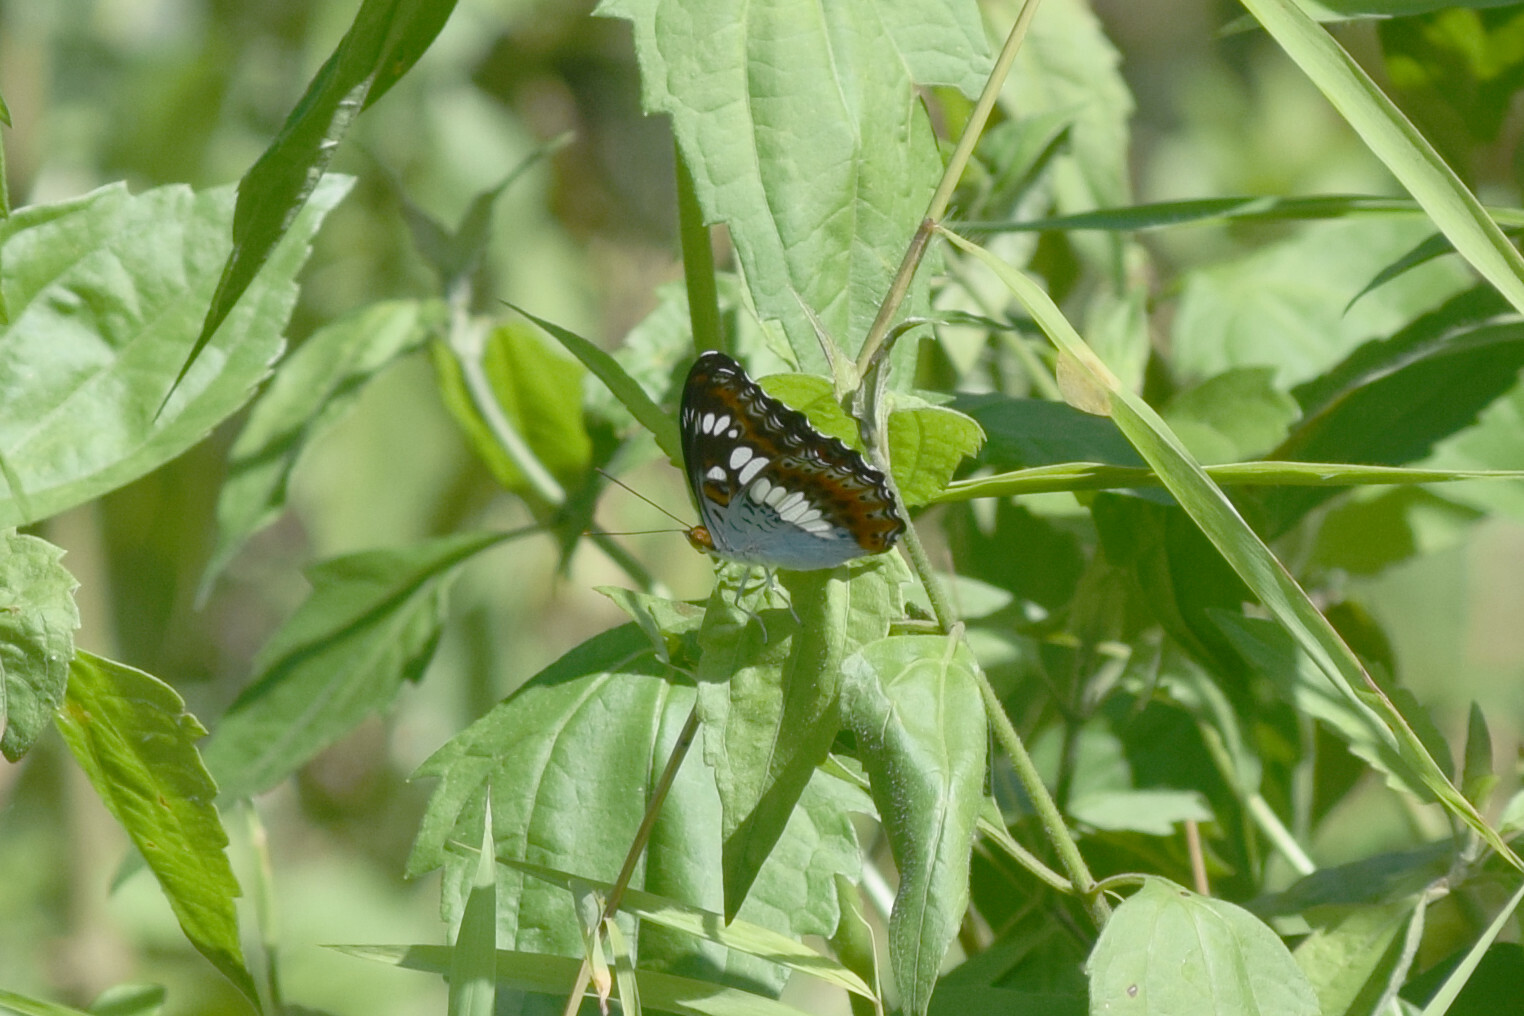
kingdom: Animalia
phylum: Arthropoda
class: Insecta
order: Lepidoptera
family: Nymphalidae
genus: Limenitis
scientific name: Limenitis Moduza procris
